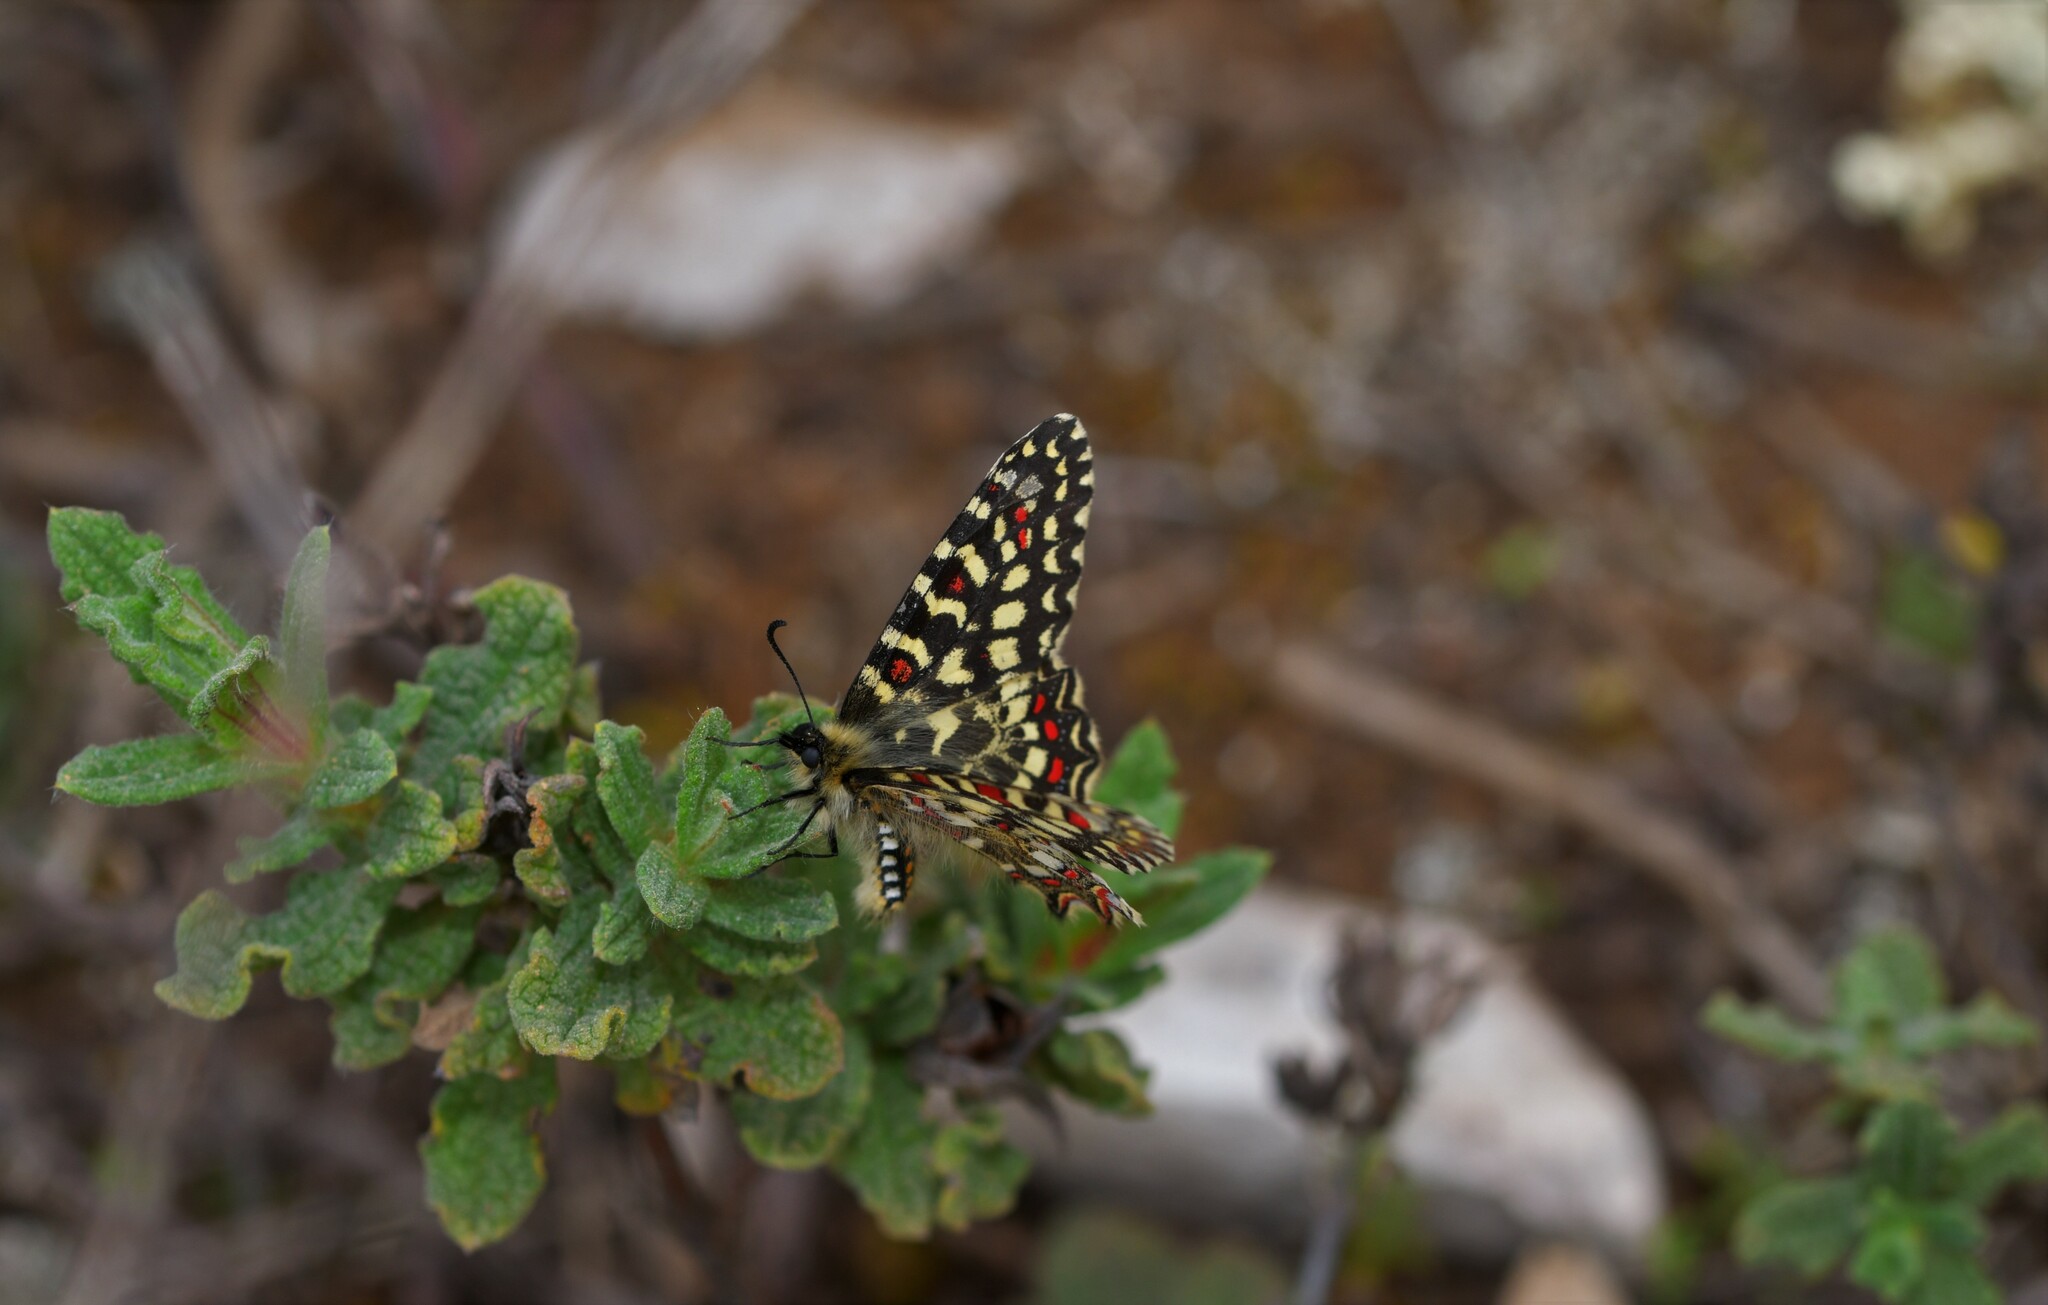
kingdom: Animalia
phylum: Arthropoda
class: Insecta
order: Lepidoptera
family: Papilionidae
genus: Zerynthia
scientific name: Zerynthia rumina
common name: Spanish festoon
